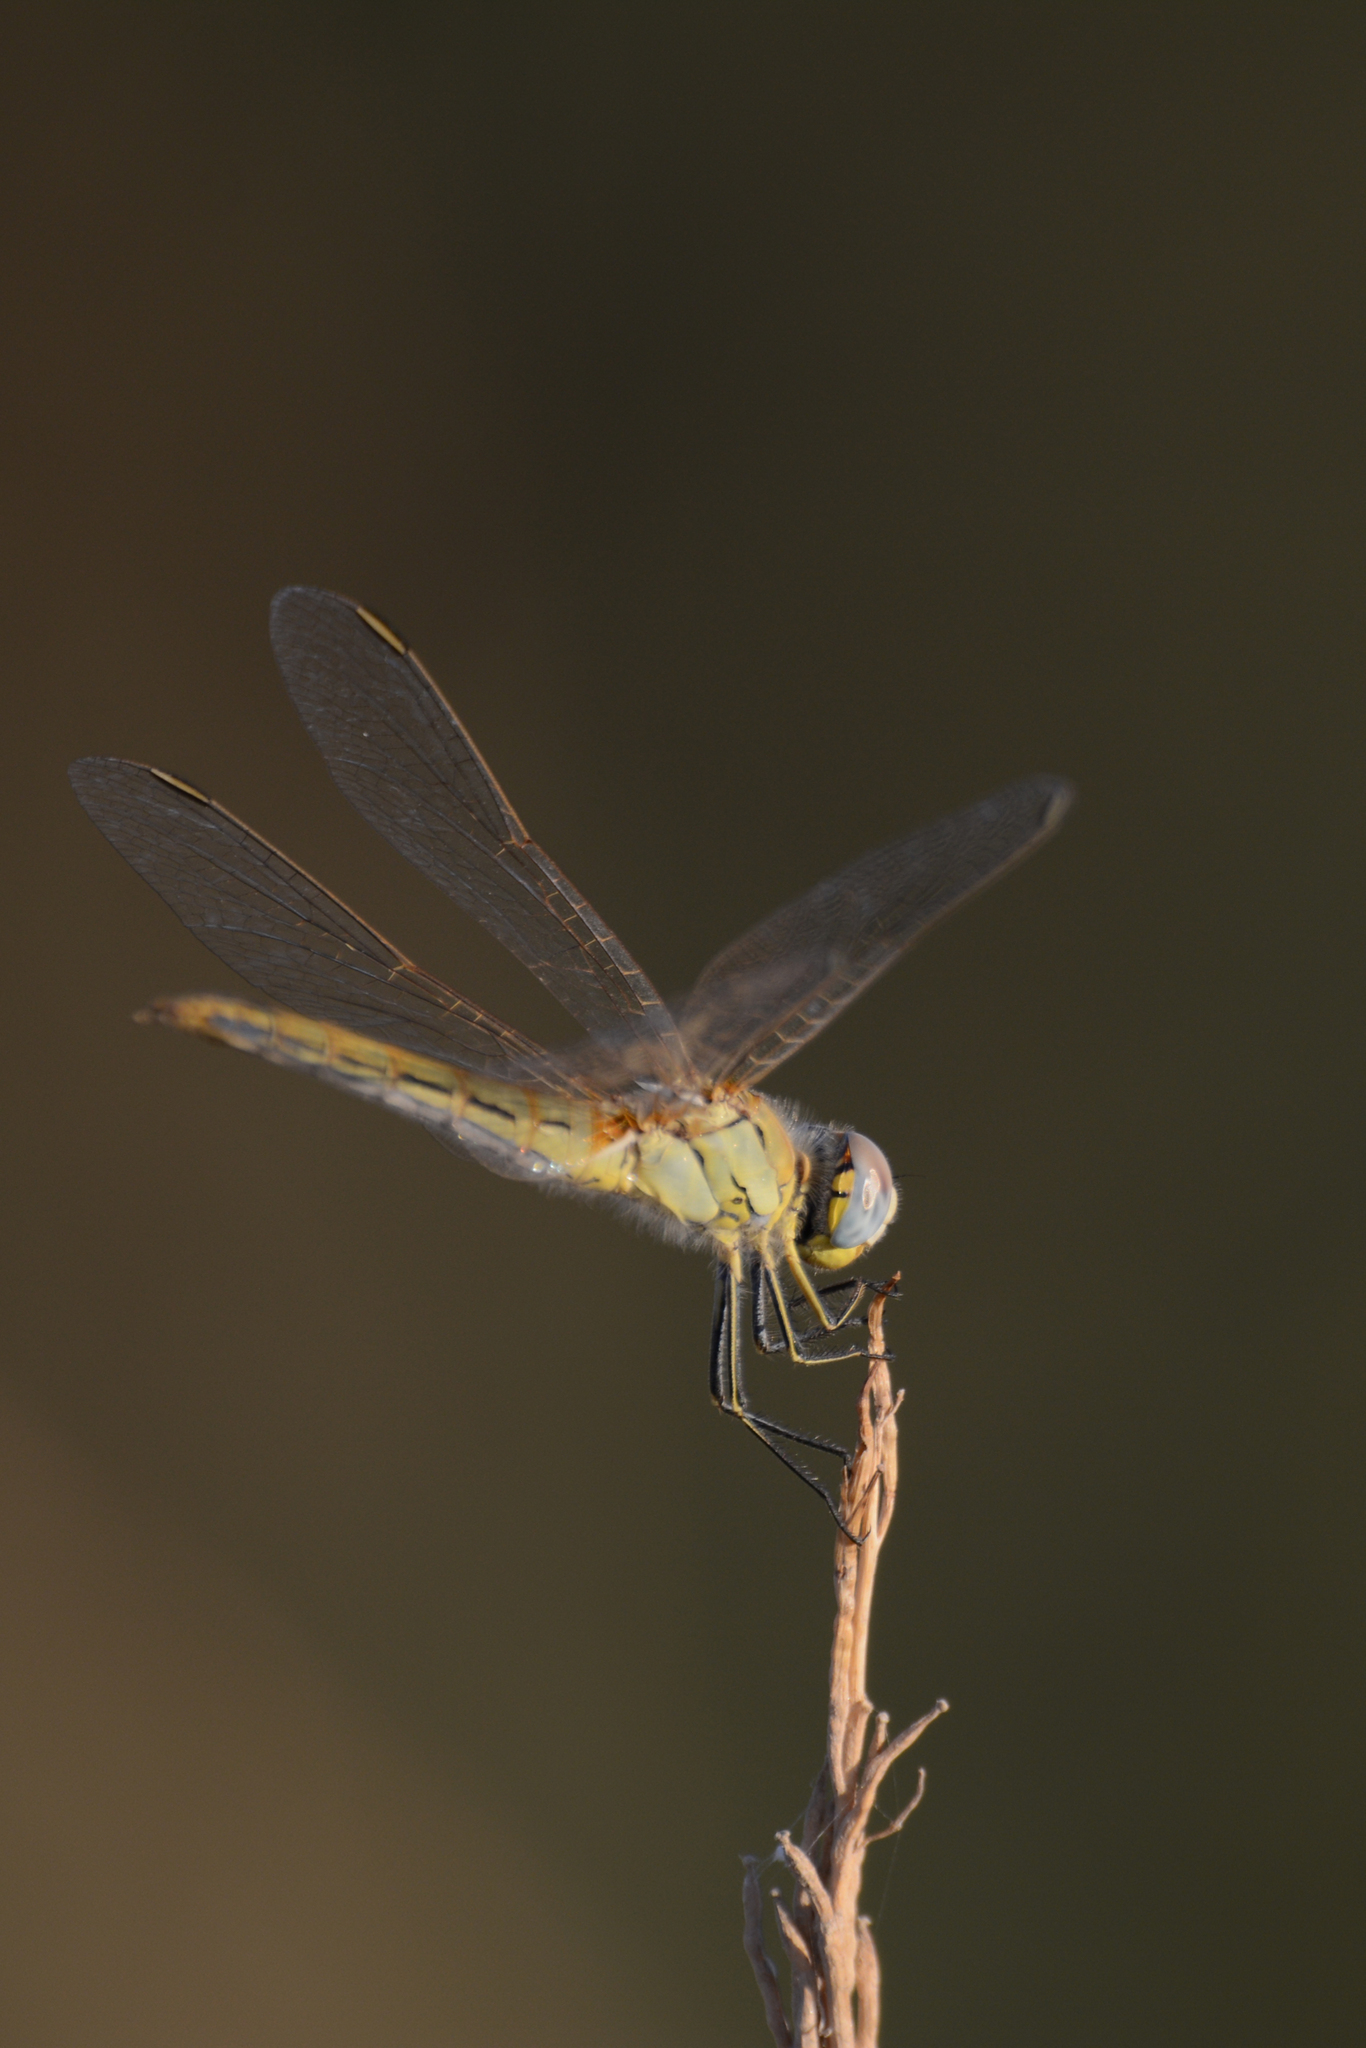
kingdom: Animalia
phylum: Arthropoda
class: Insecta
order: Odonata
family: Libellulidae
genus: Sympetrum
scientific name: Sympetrum fonscolombii
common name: Red-veined darter
